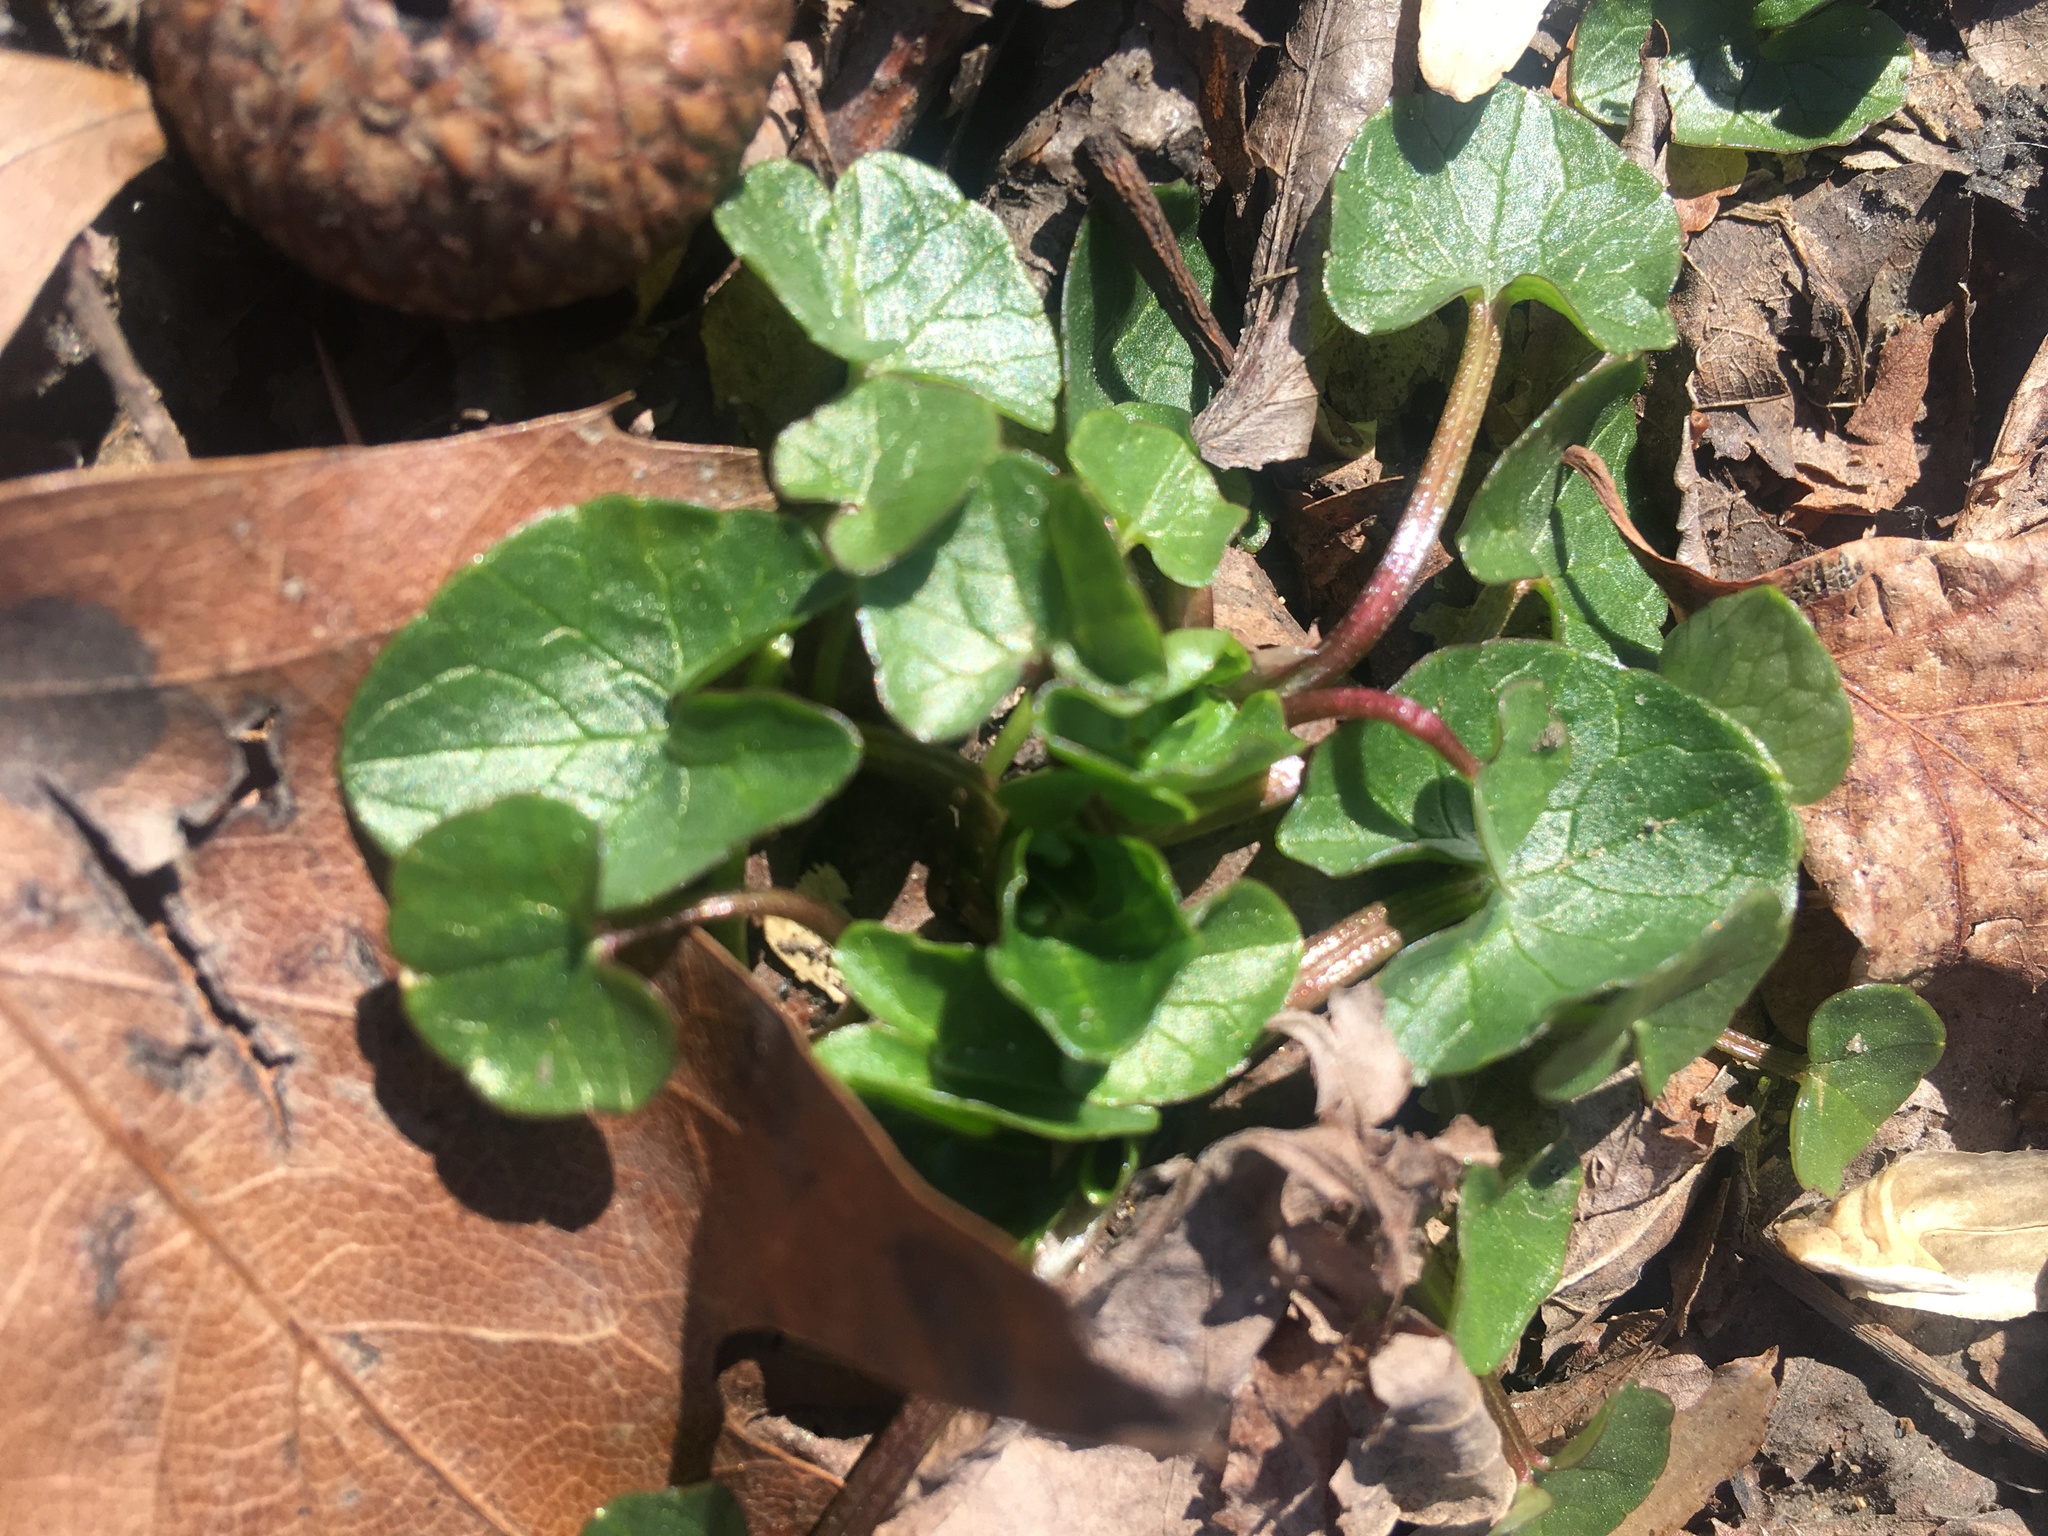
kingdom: Plantae
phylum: Tracheophyta
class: Magnoliopsida
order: Ranunculales
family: Ranunculaceae
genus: Ficaria
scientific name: Ficaria verna
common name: Lesser celandine
